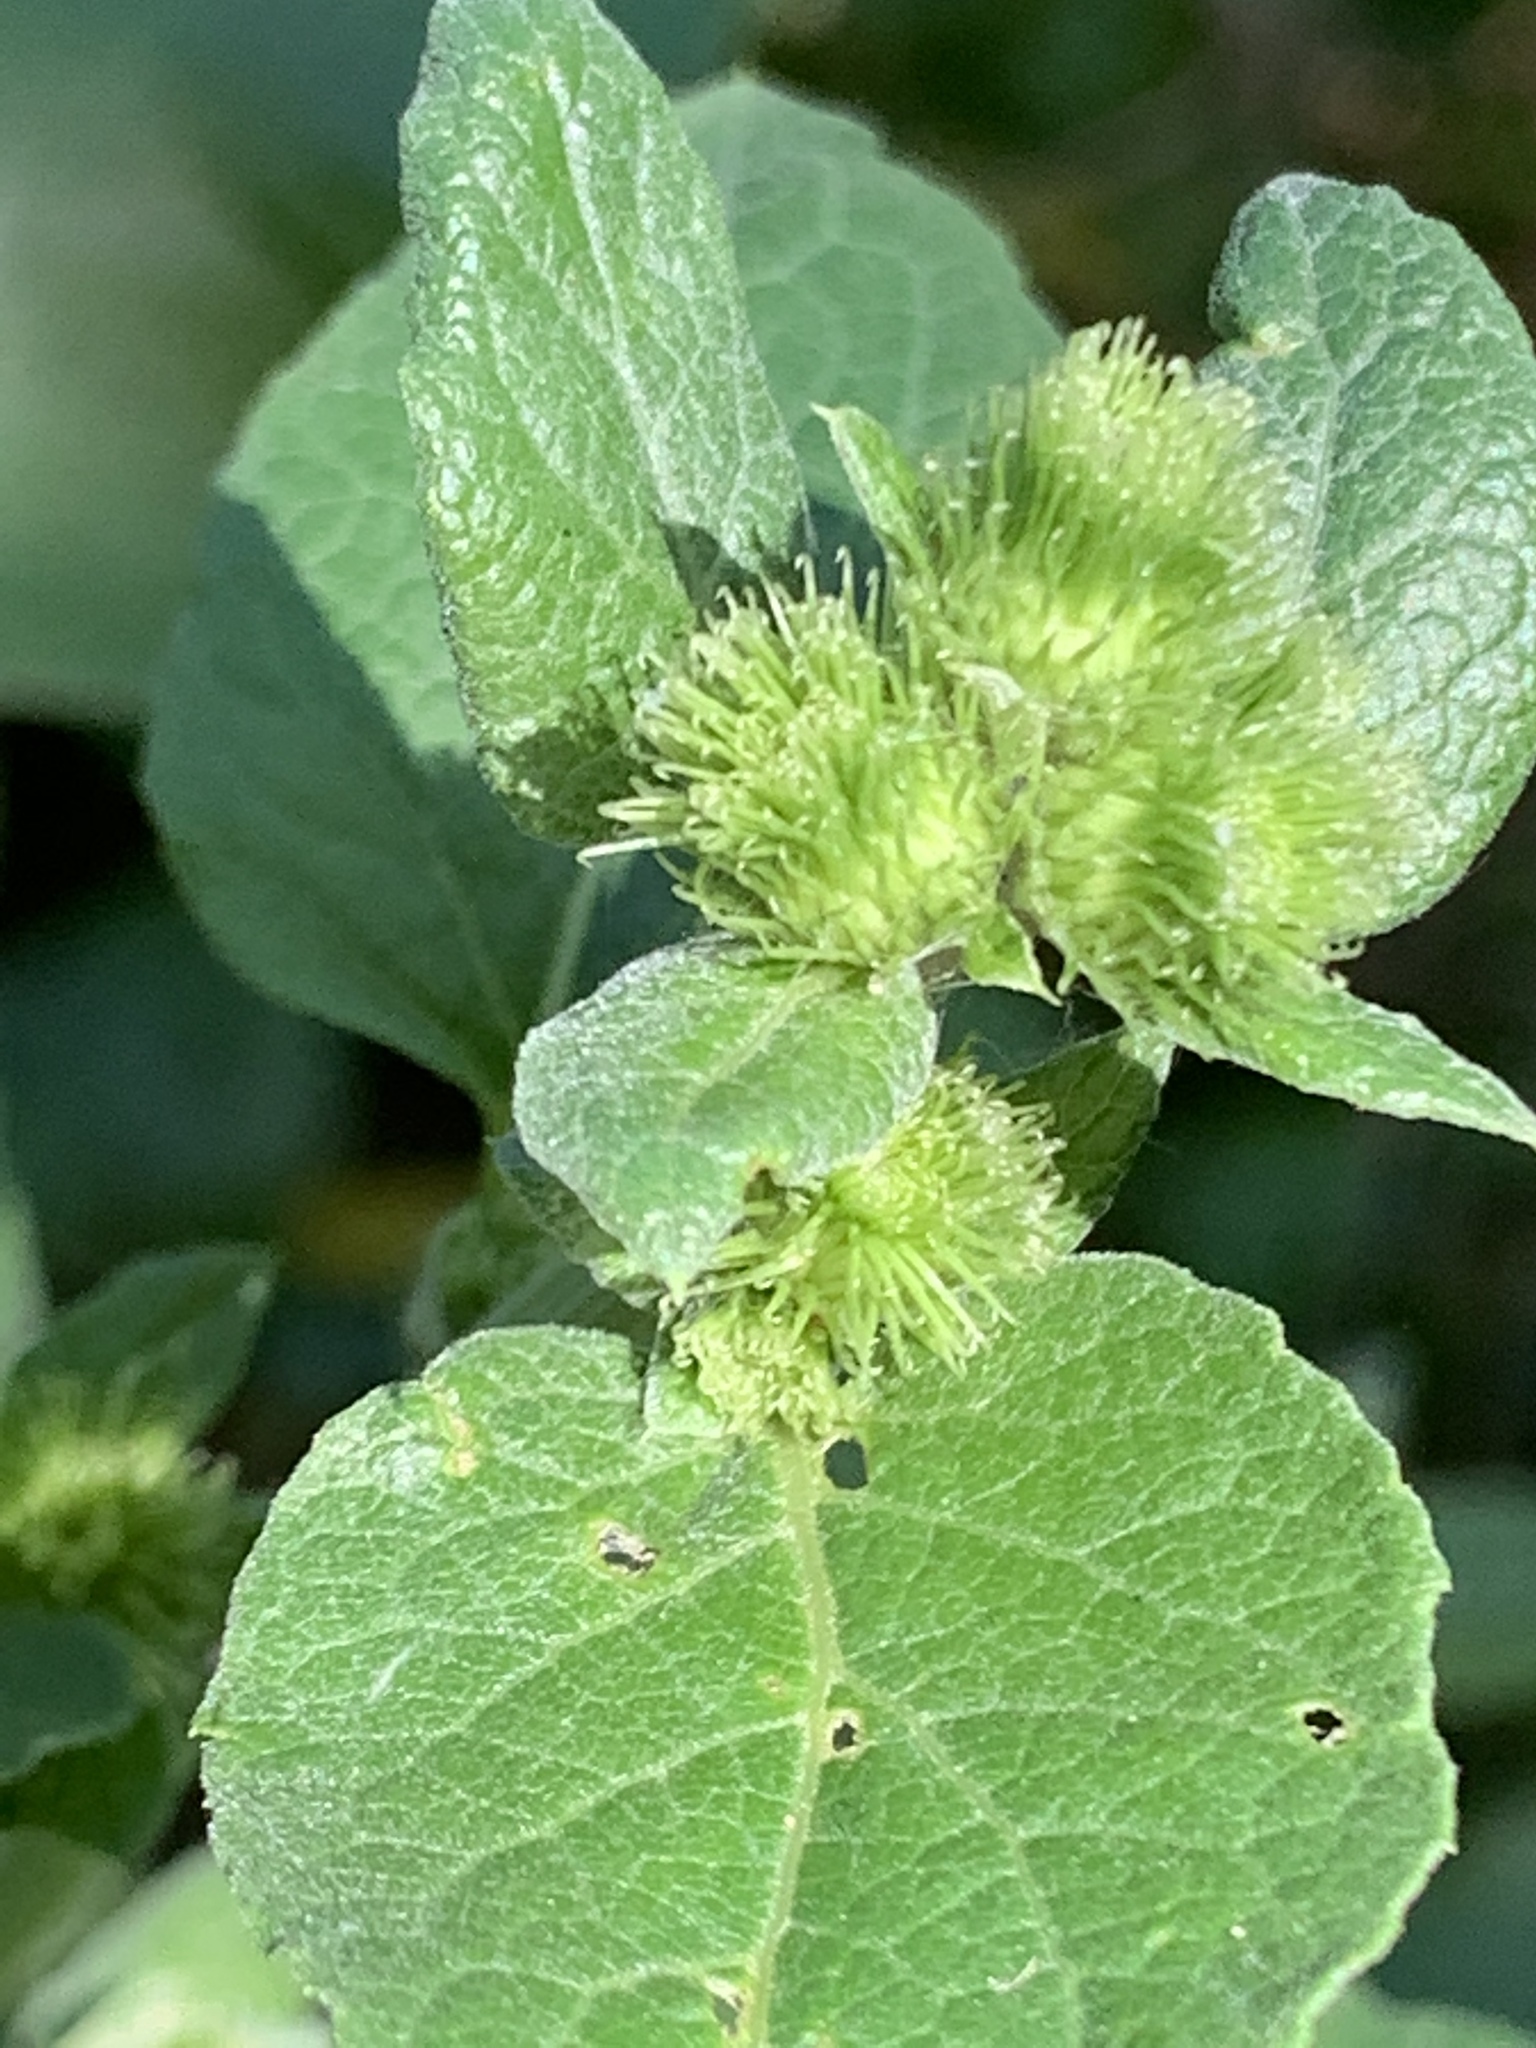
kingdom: Plantae
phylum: Tracheophyta
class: Magnoliopsida
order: Asterales
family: Asteraceae
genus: Arctium
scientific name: Arctium
